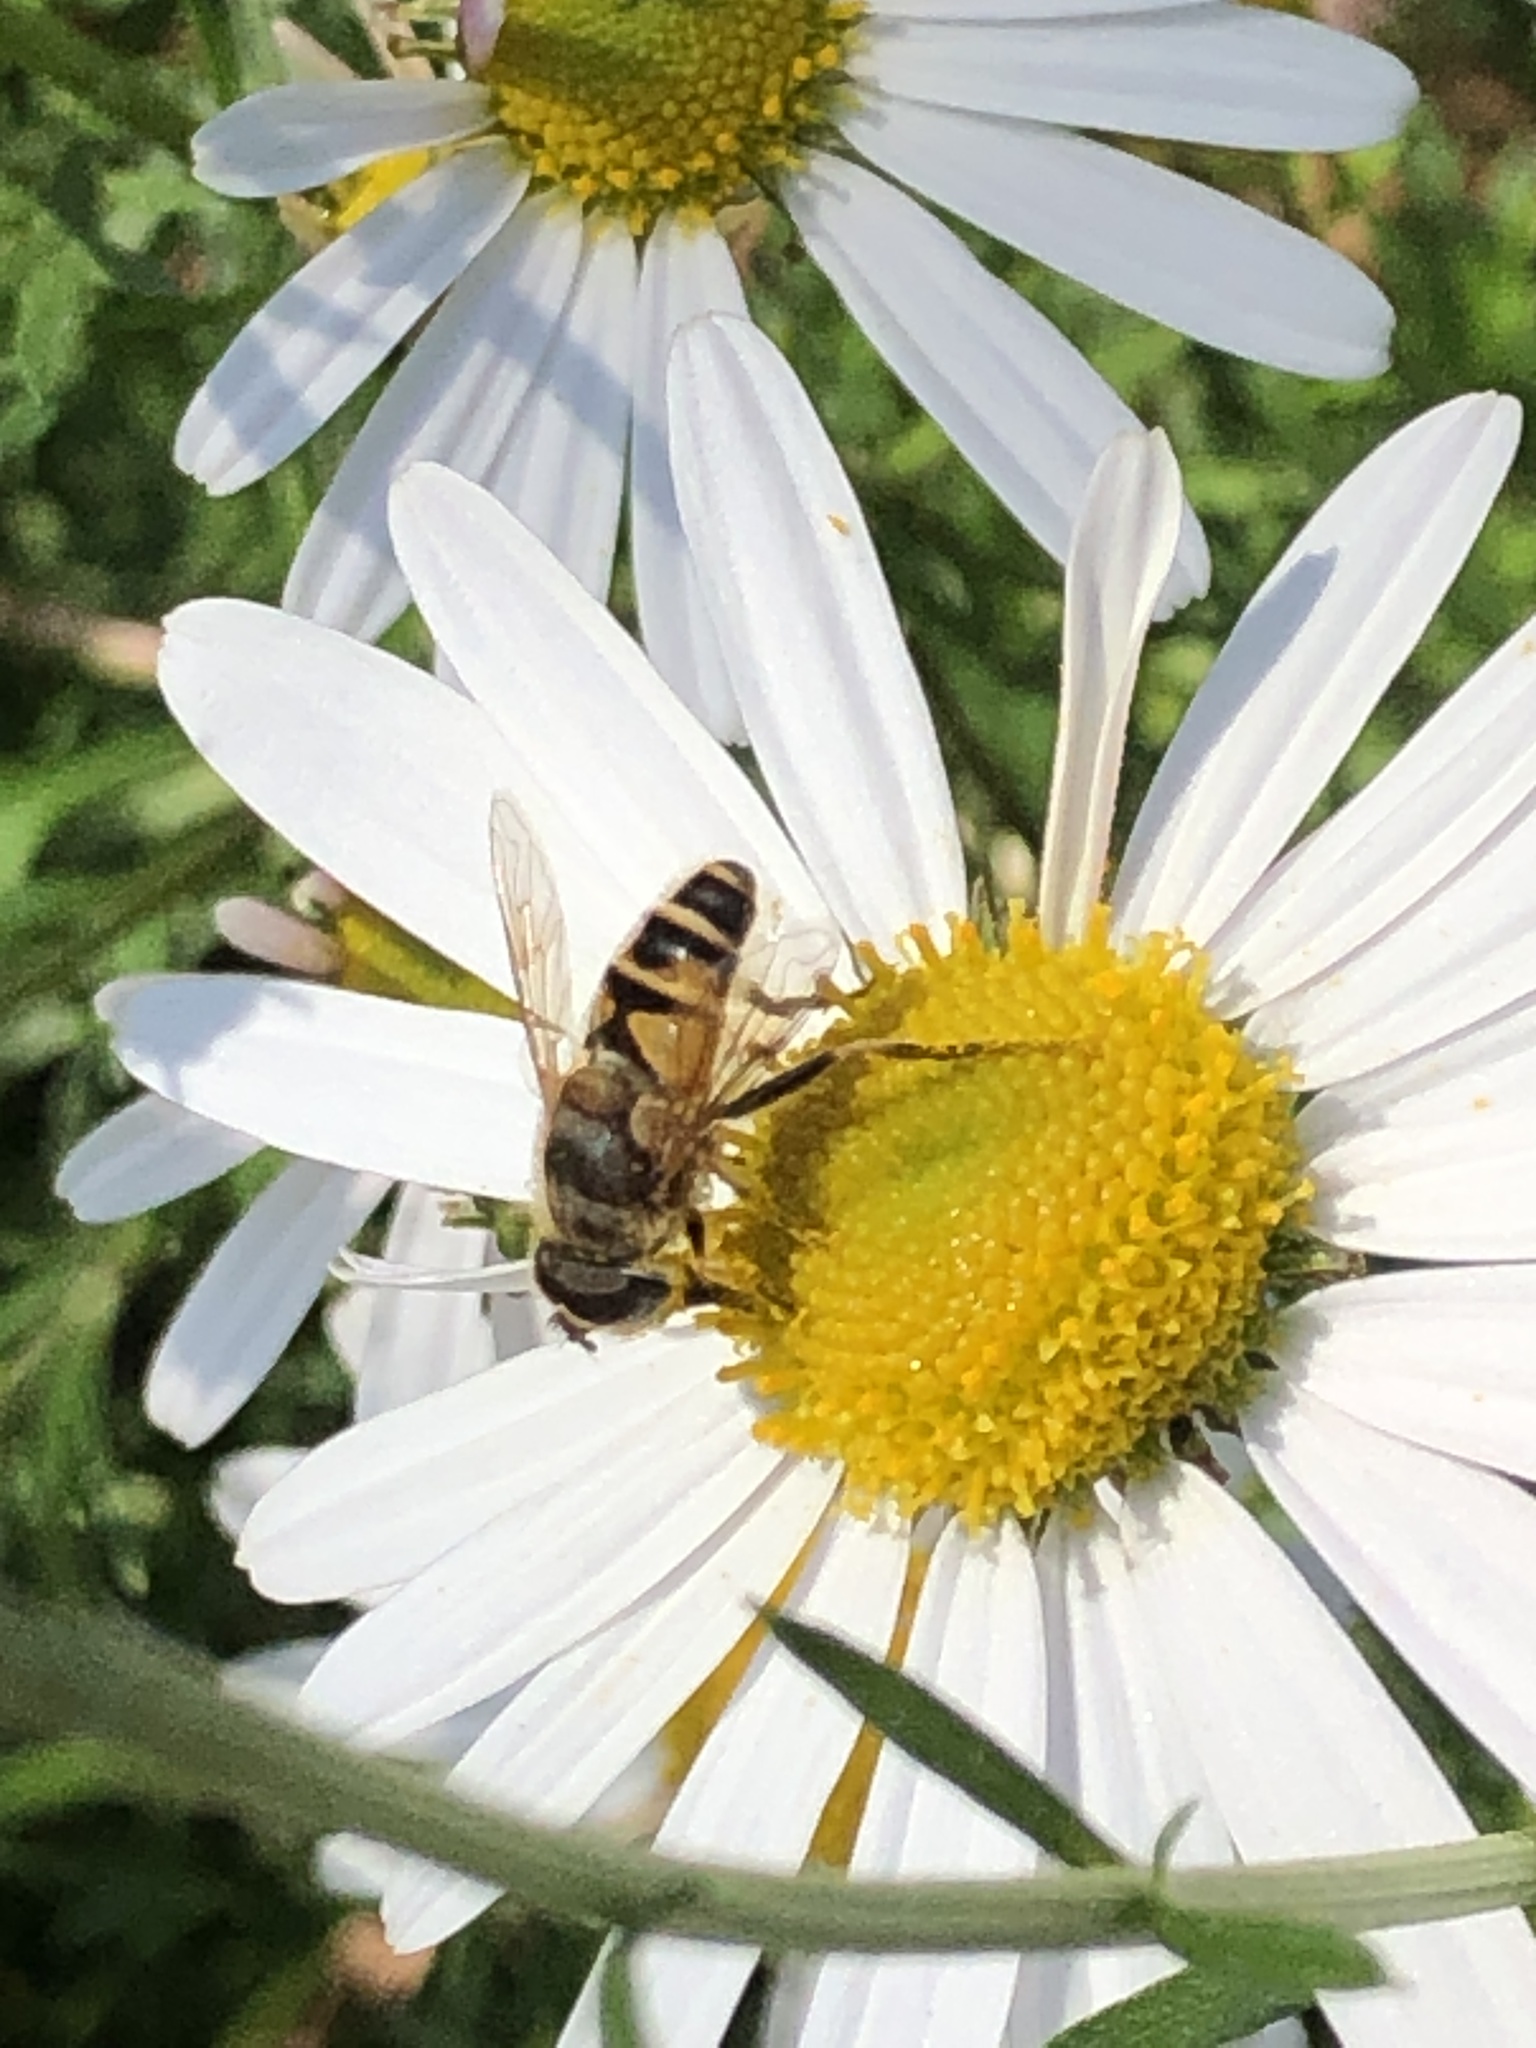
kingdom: Animalia
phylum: Arthropoda
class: Insecta
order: Diptera
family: Syrphidae
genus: Eristalis
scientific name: Eristalis cerealis
